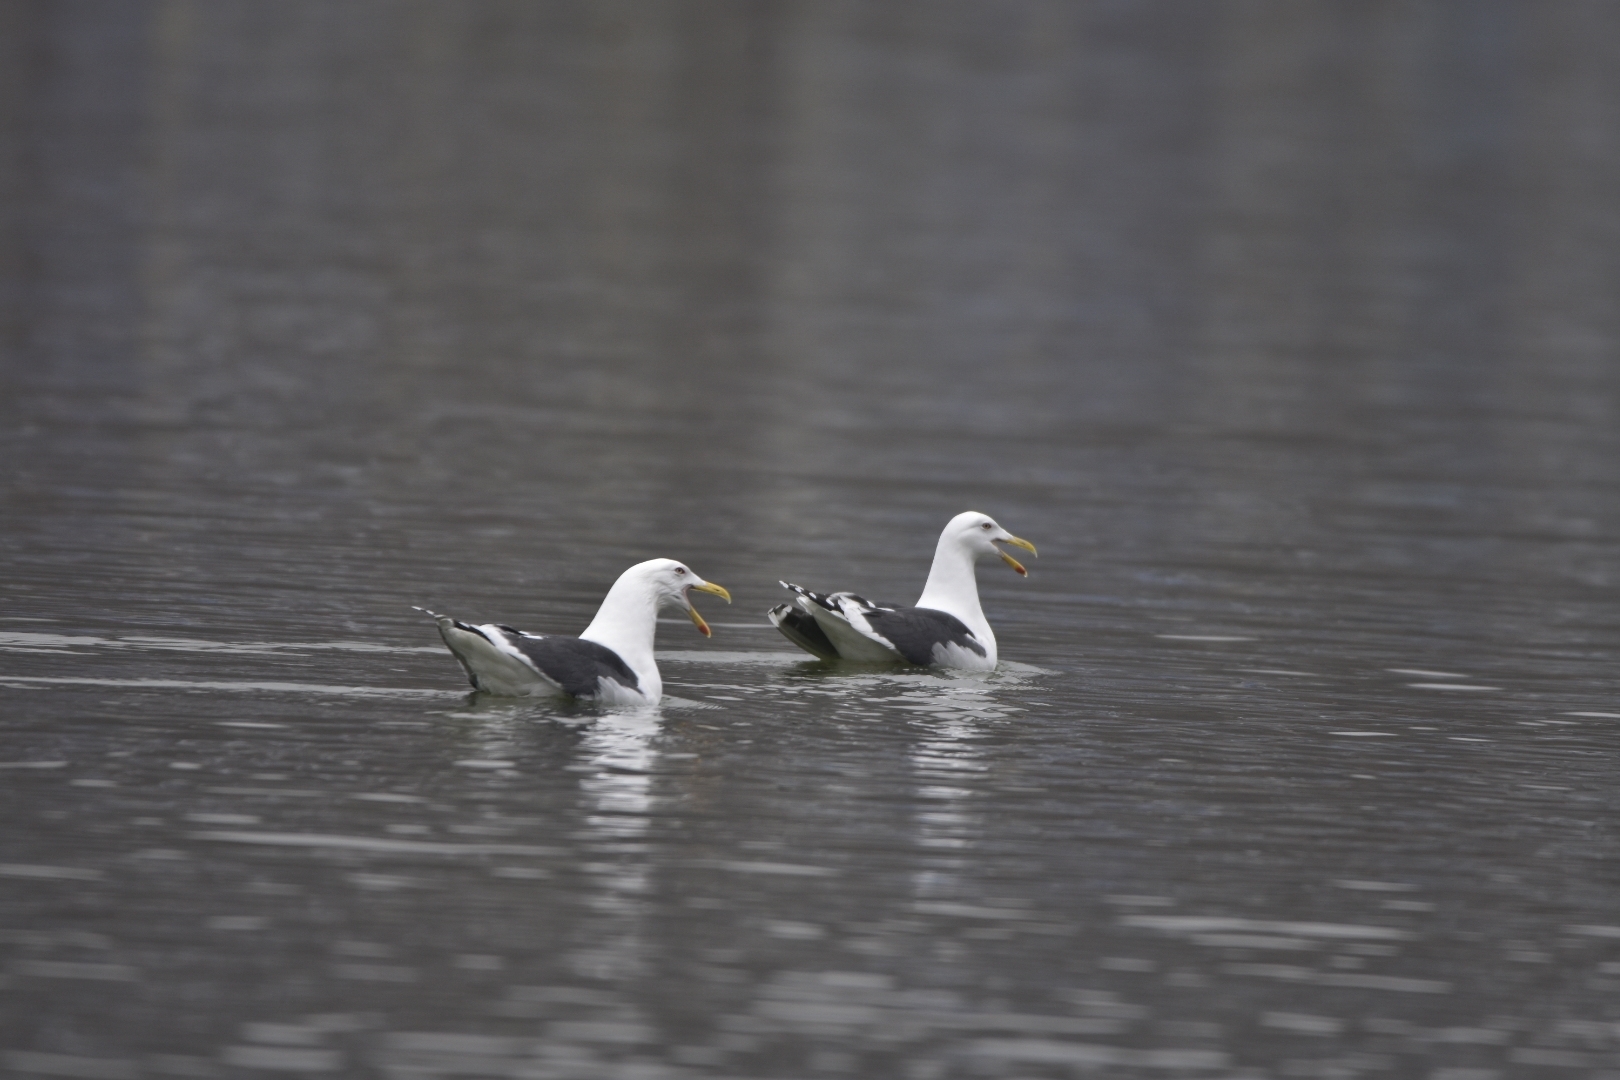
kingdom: Animalia
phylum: Chordata
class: Aves
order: Charadriiformes
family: Laridae
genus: Larus
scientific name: Larus schistisagus
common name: Slaty-backed gull
